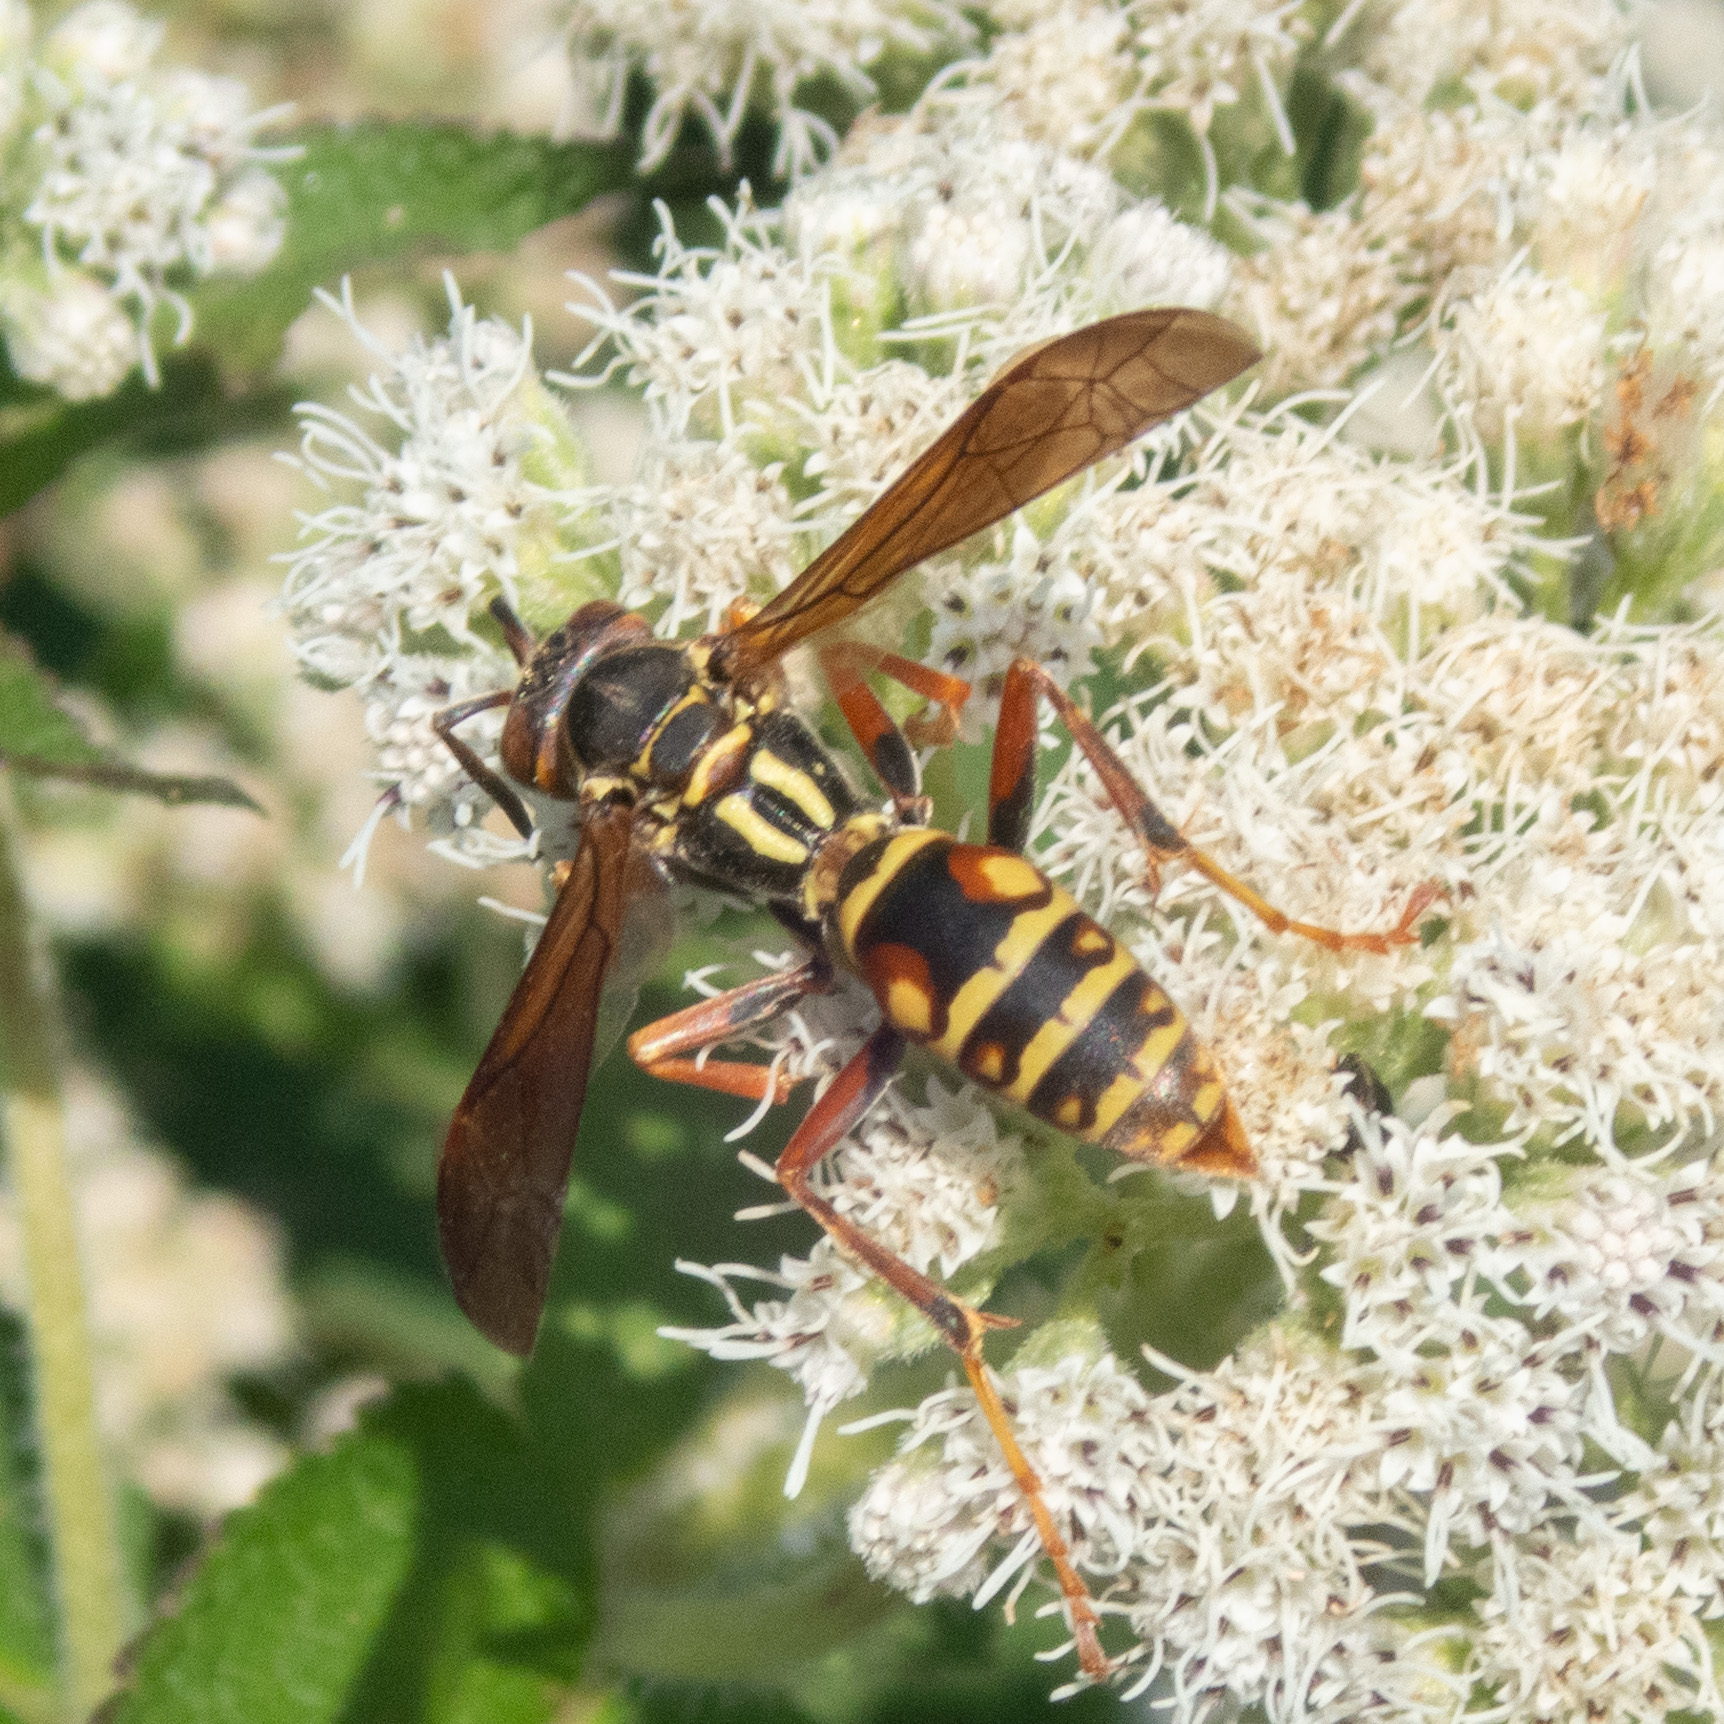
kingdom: Animalia
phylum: Arthropoda
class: Insecta
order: Hymenoptera
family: Eumenidae
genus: Polistes
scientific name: Polistes fuscatus
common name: Dark paper wasp
